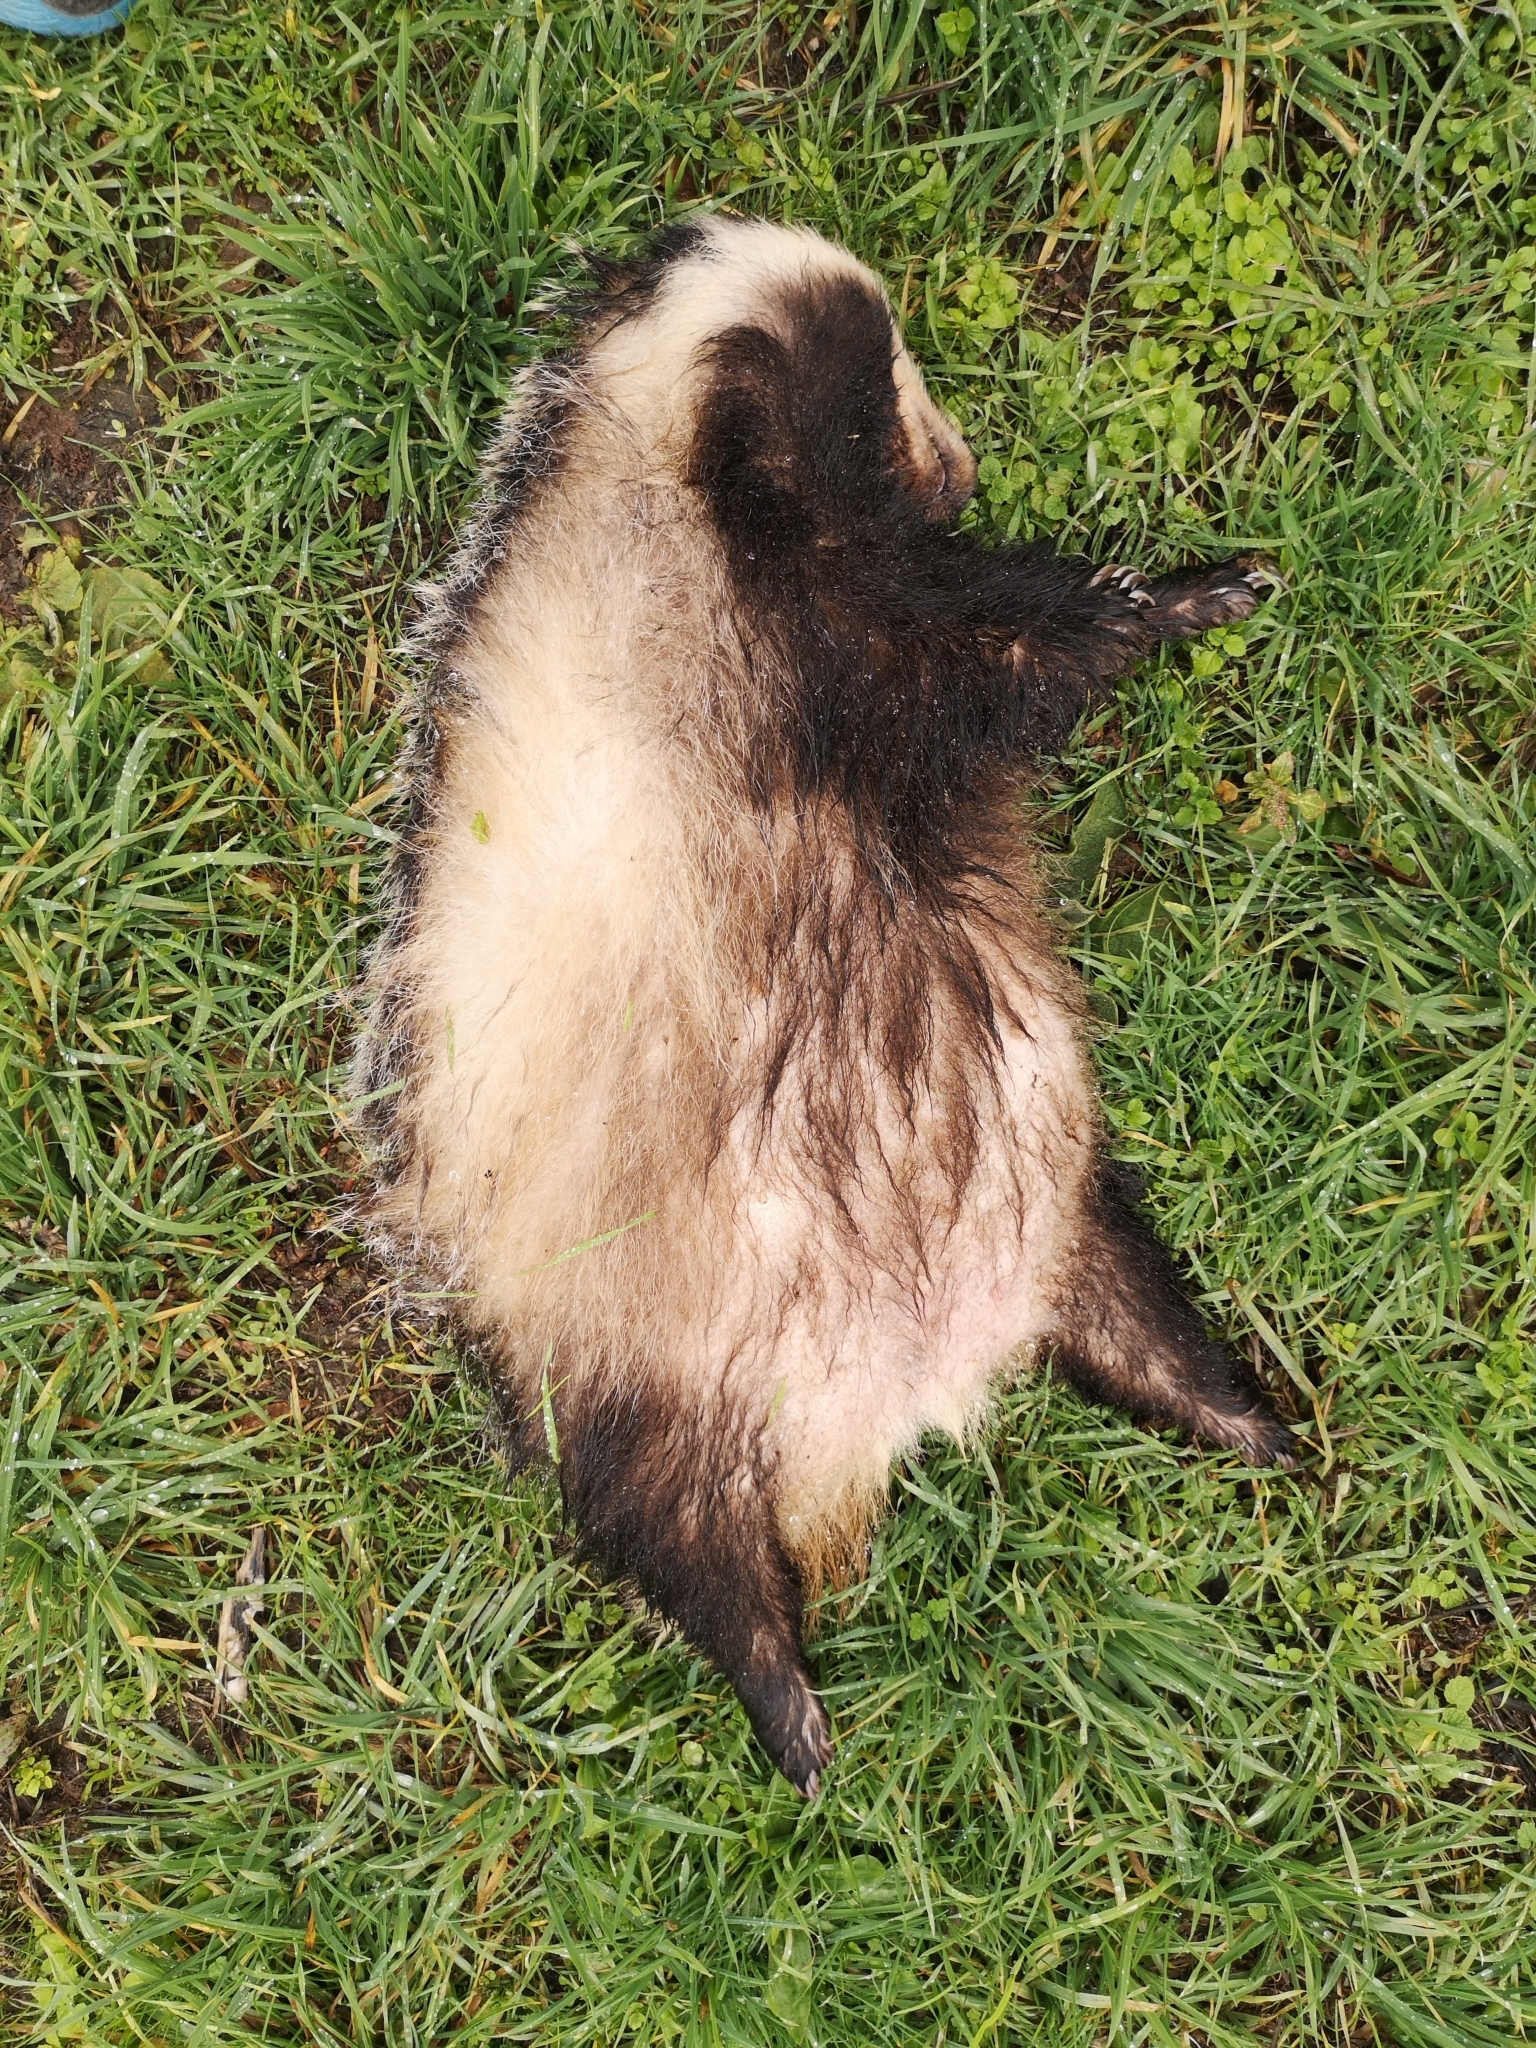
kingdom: Animalia
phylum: Chordata
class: Mammalia
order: Carnivora
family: Mustelidae
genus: Meles
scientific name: Meles meles
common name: Eurasian badger
